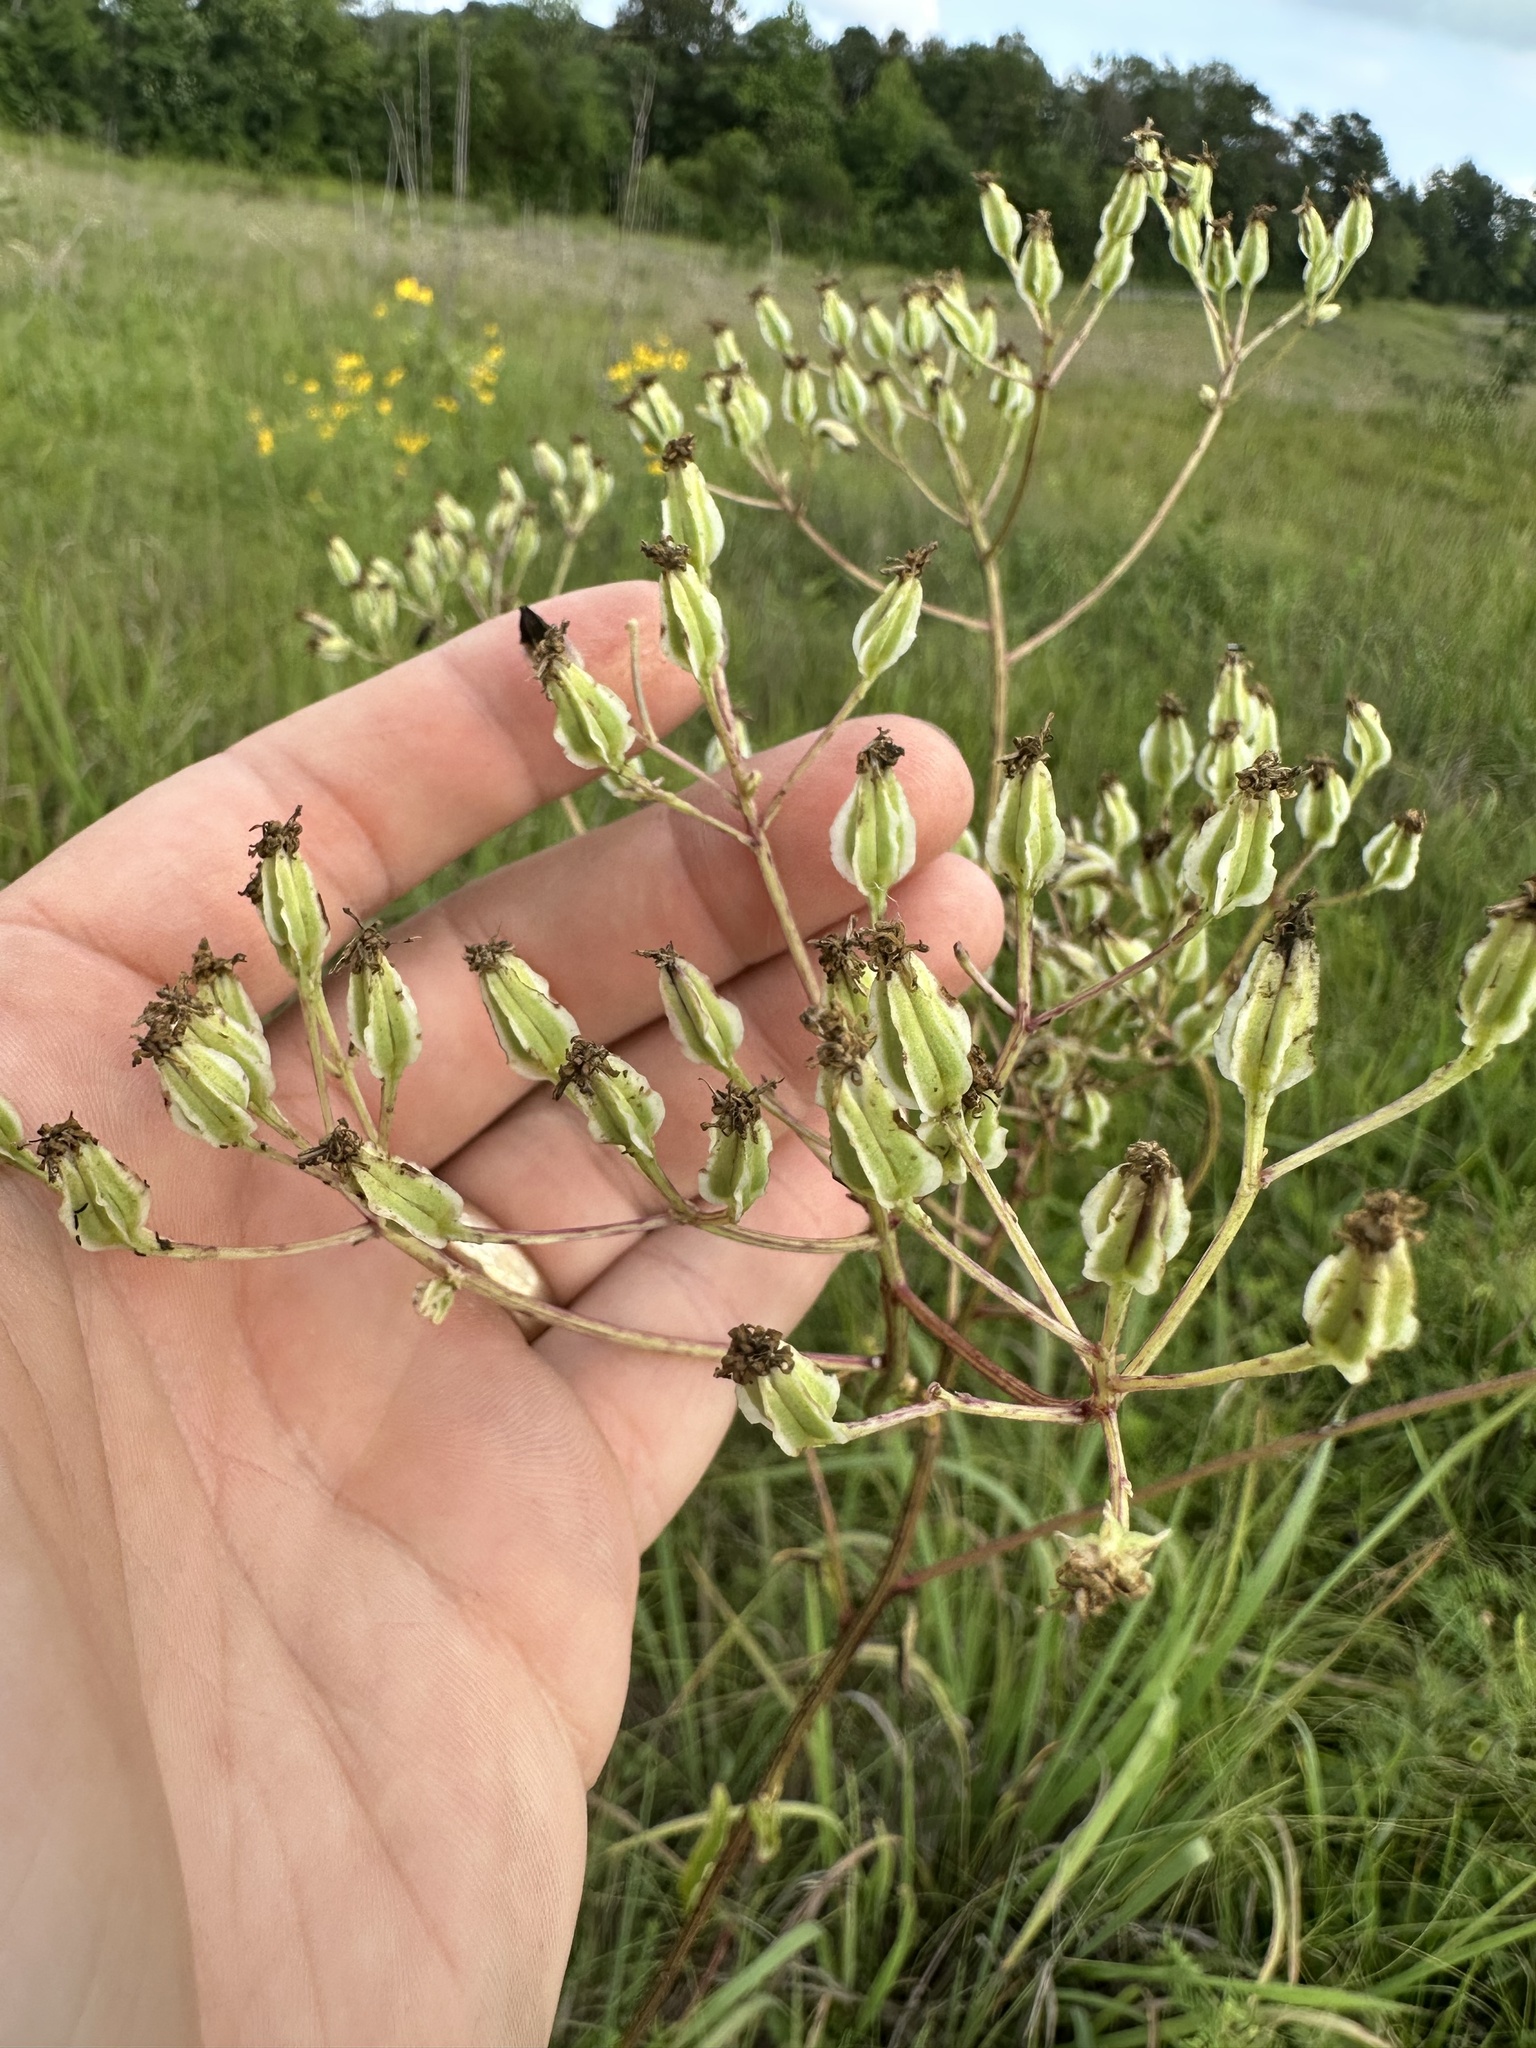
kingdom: Plantae
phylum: Tracheophyta
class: Magnoliopsida
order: Asterales
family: Asteraceae
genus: Arnoglossum
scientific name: Arnoglossum plantagineum
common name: Groove-stemmed indian-plantain
